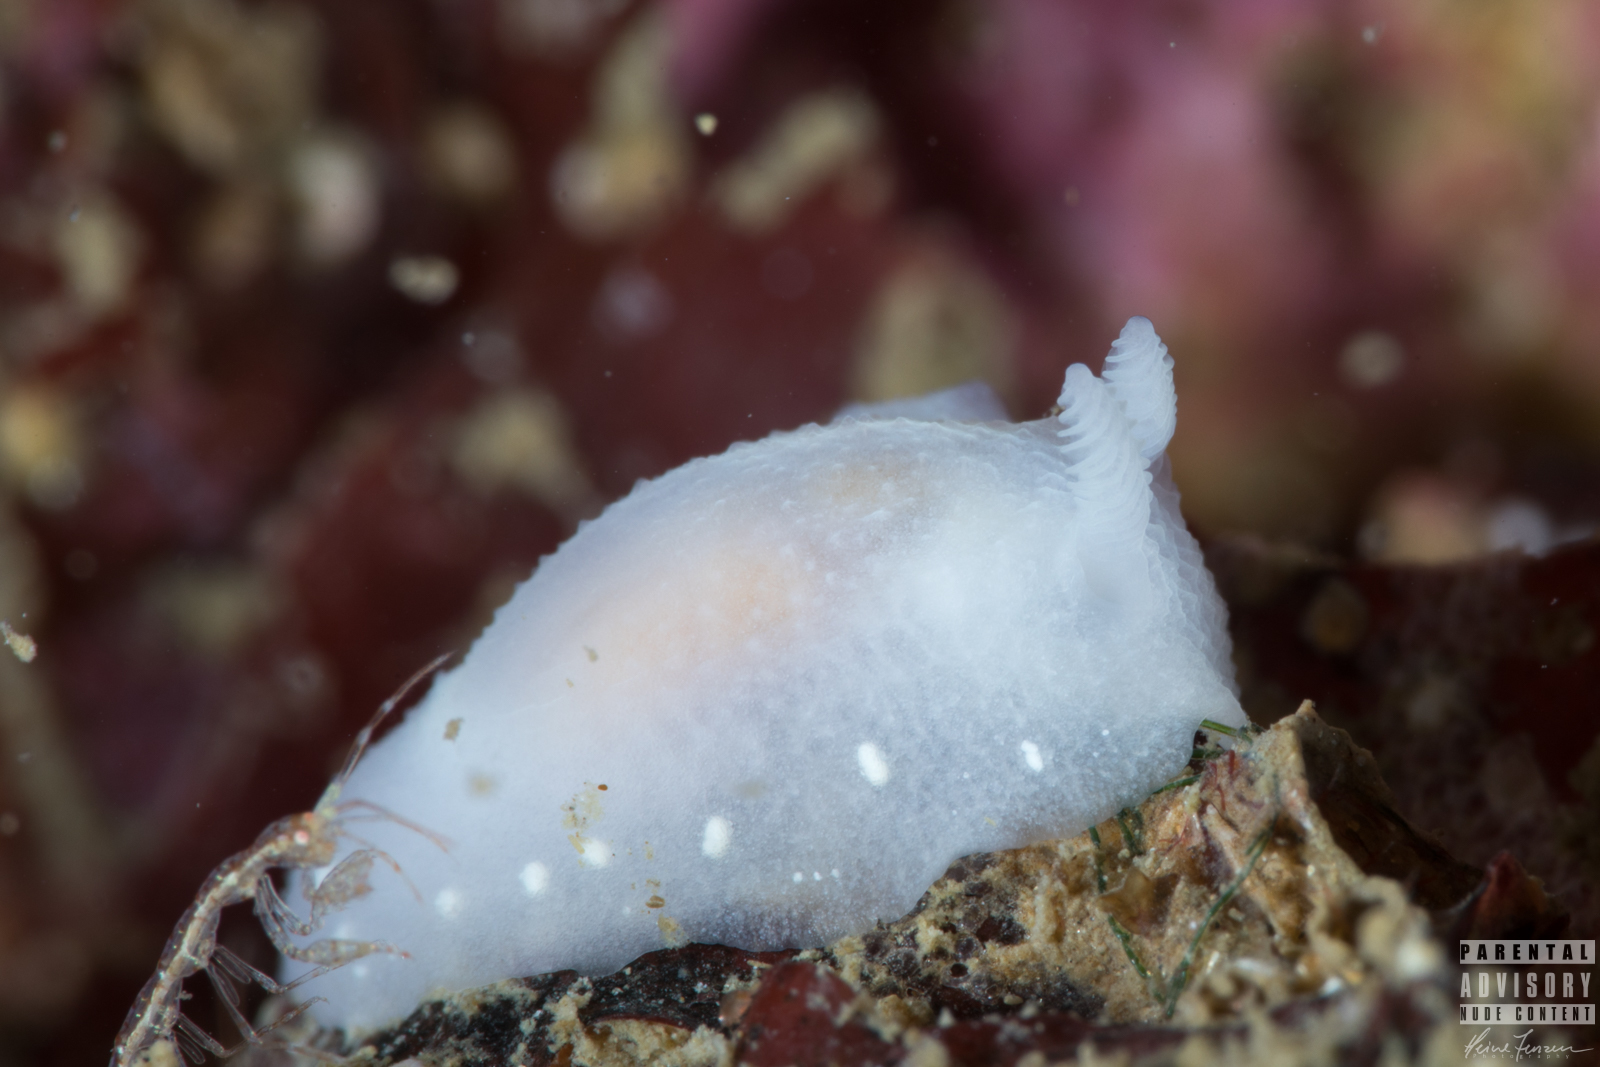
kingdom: Animalia
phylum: Mollusca
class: Gastropoda
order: Nudibranchia
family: Cadlinidae
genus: Cadlina
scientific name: Cadlina laevis
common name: White atlantic cadlina
